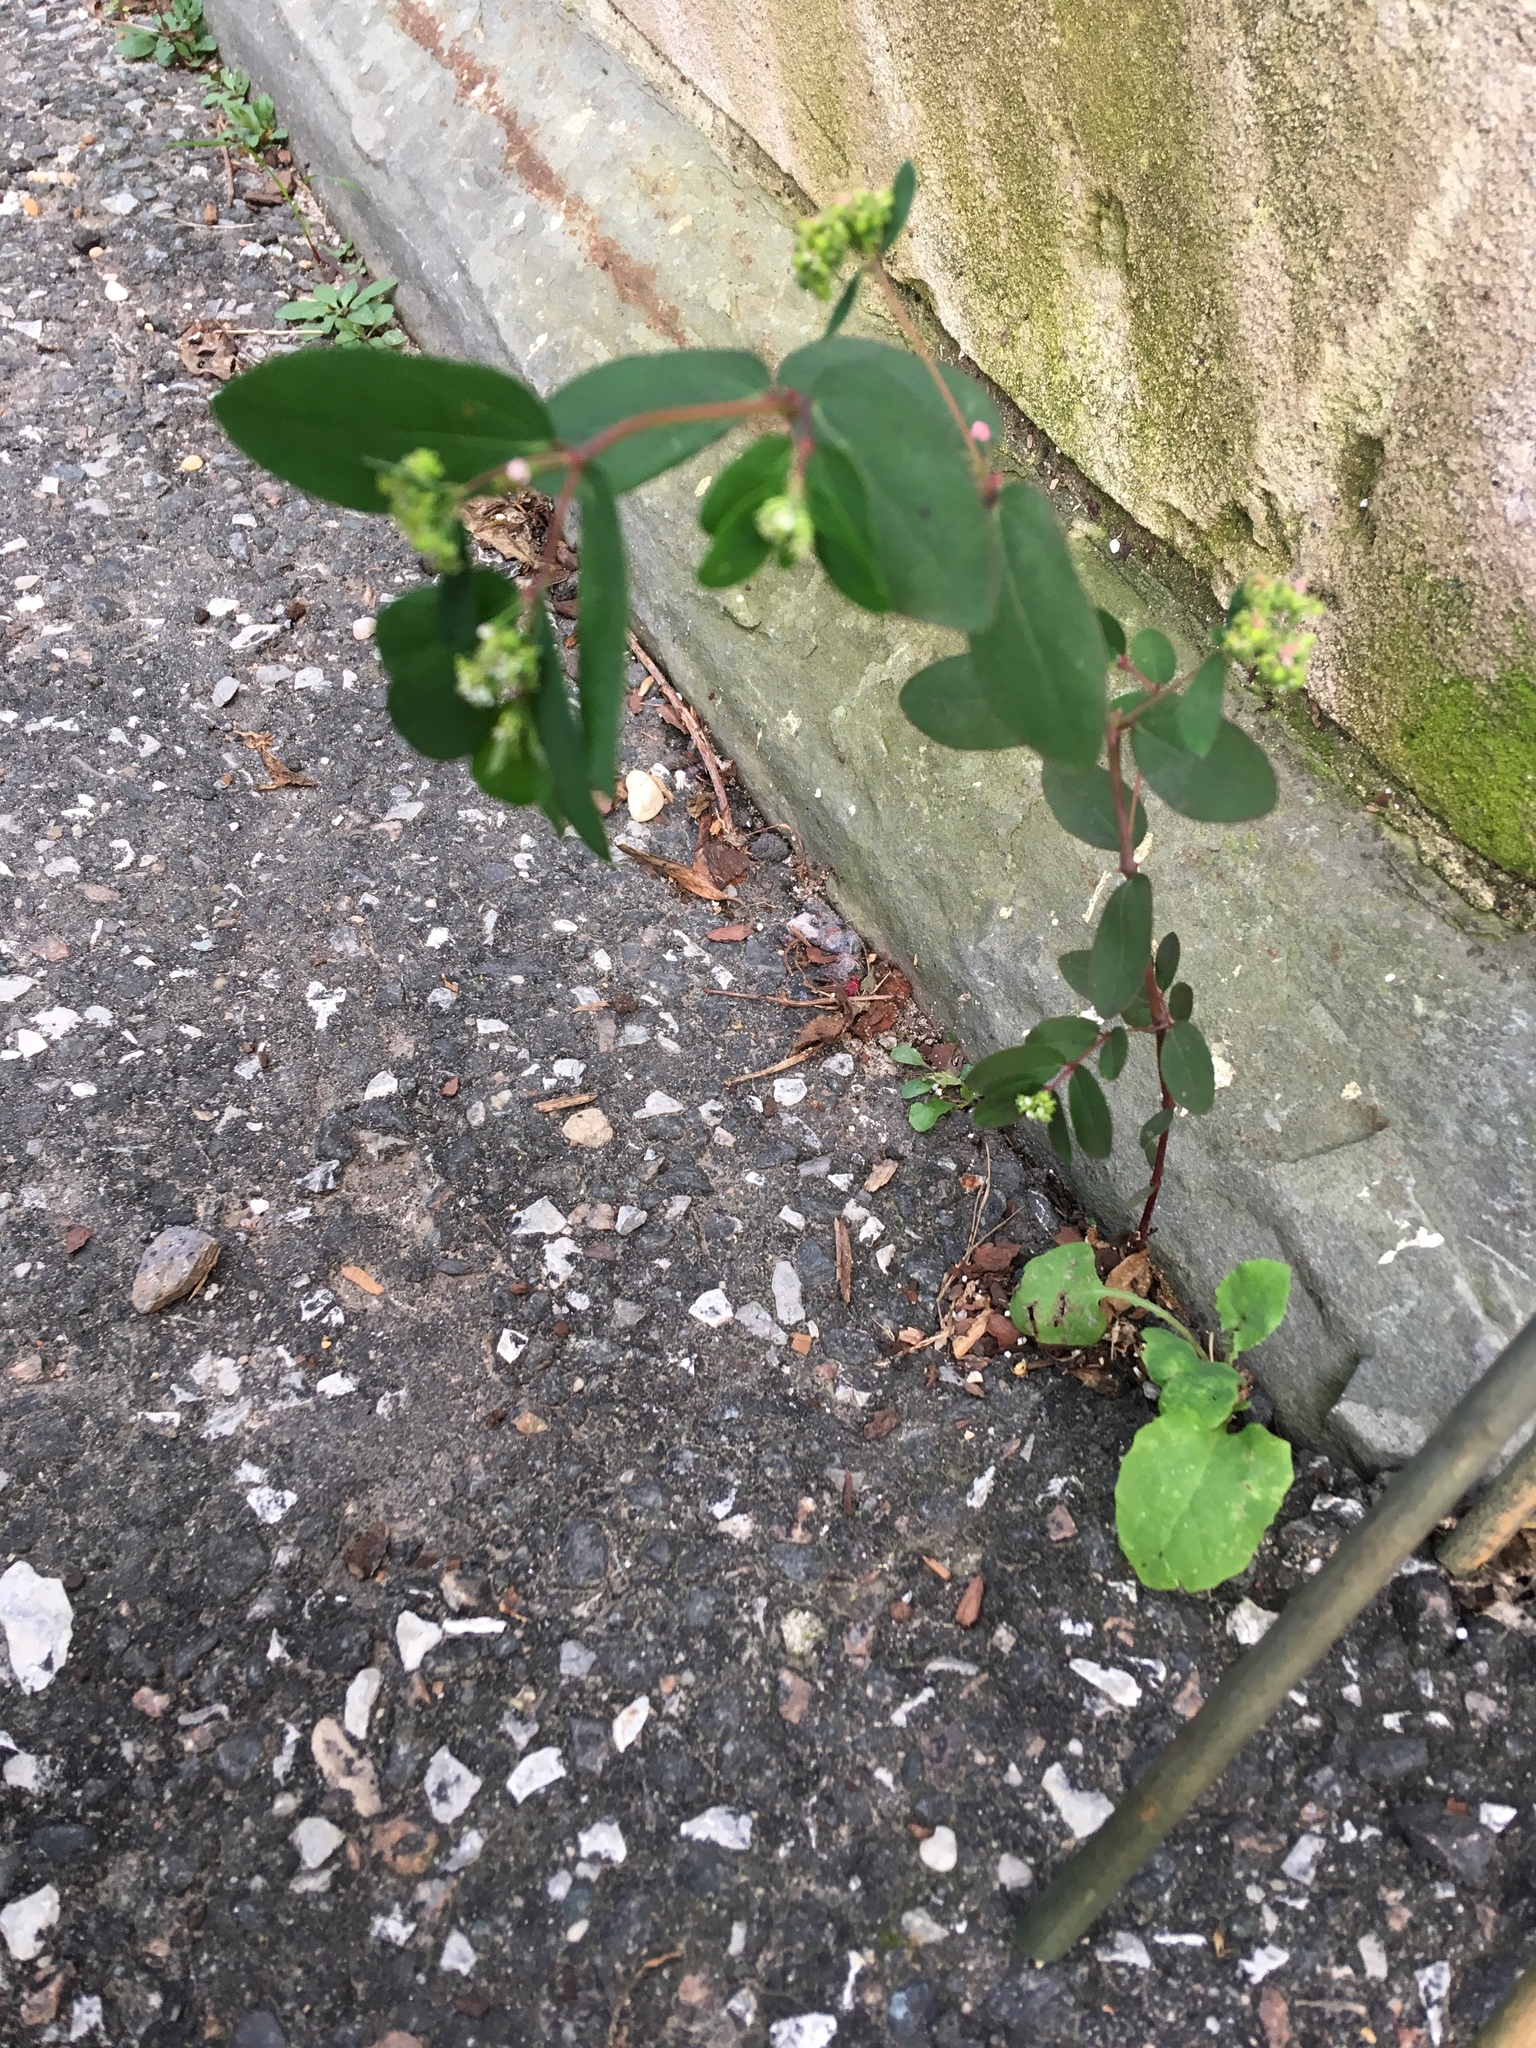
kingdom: Plantae
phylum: Tracheophyta
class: Magnoliopsida
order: Malpighiales
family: Euphorbiaceae
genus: Euphorbia
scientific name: Euphorbia hypericifolia
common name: Graceful sandmat
